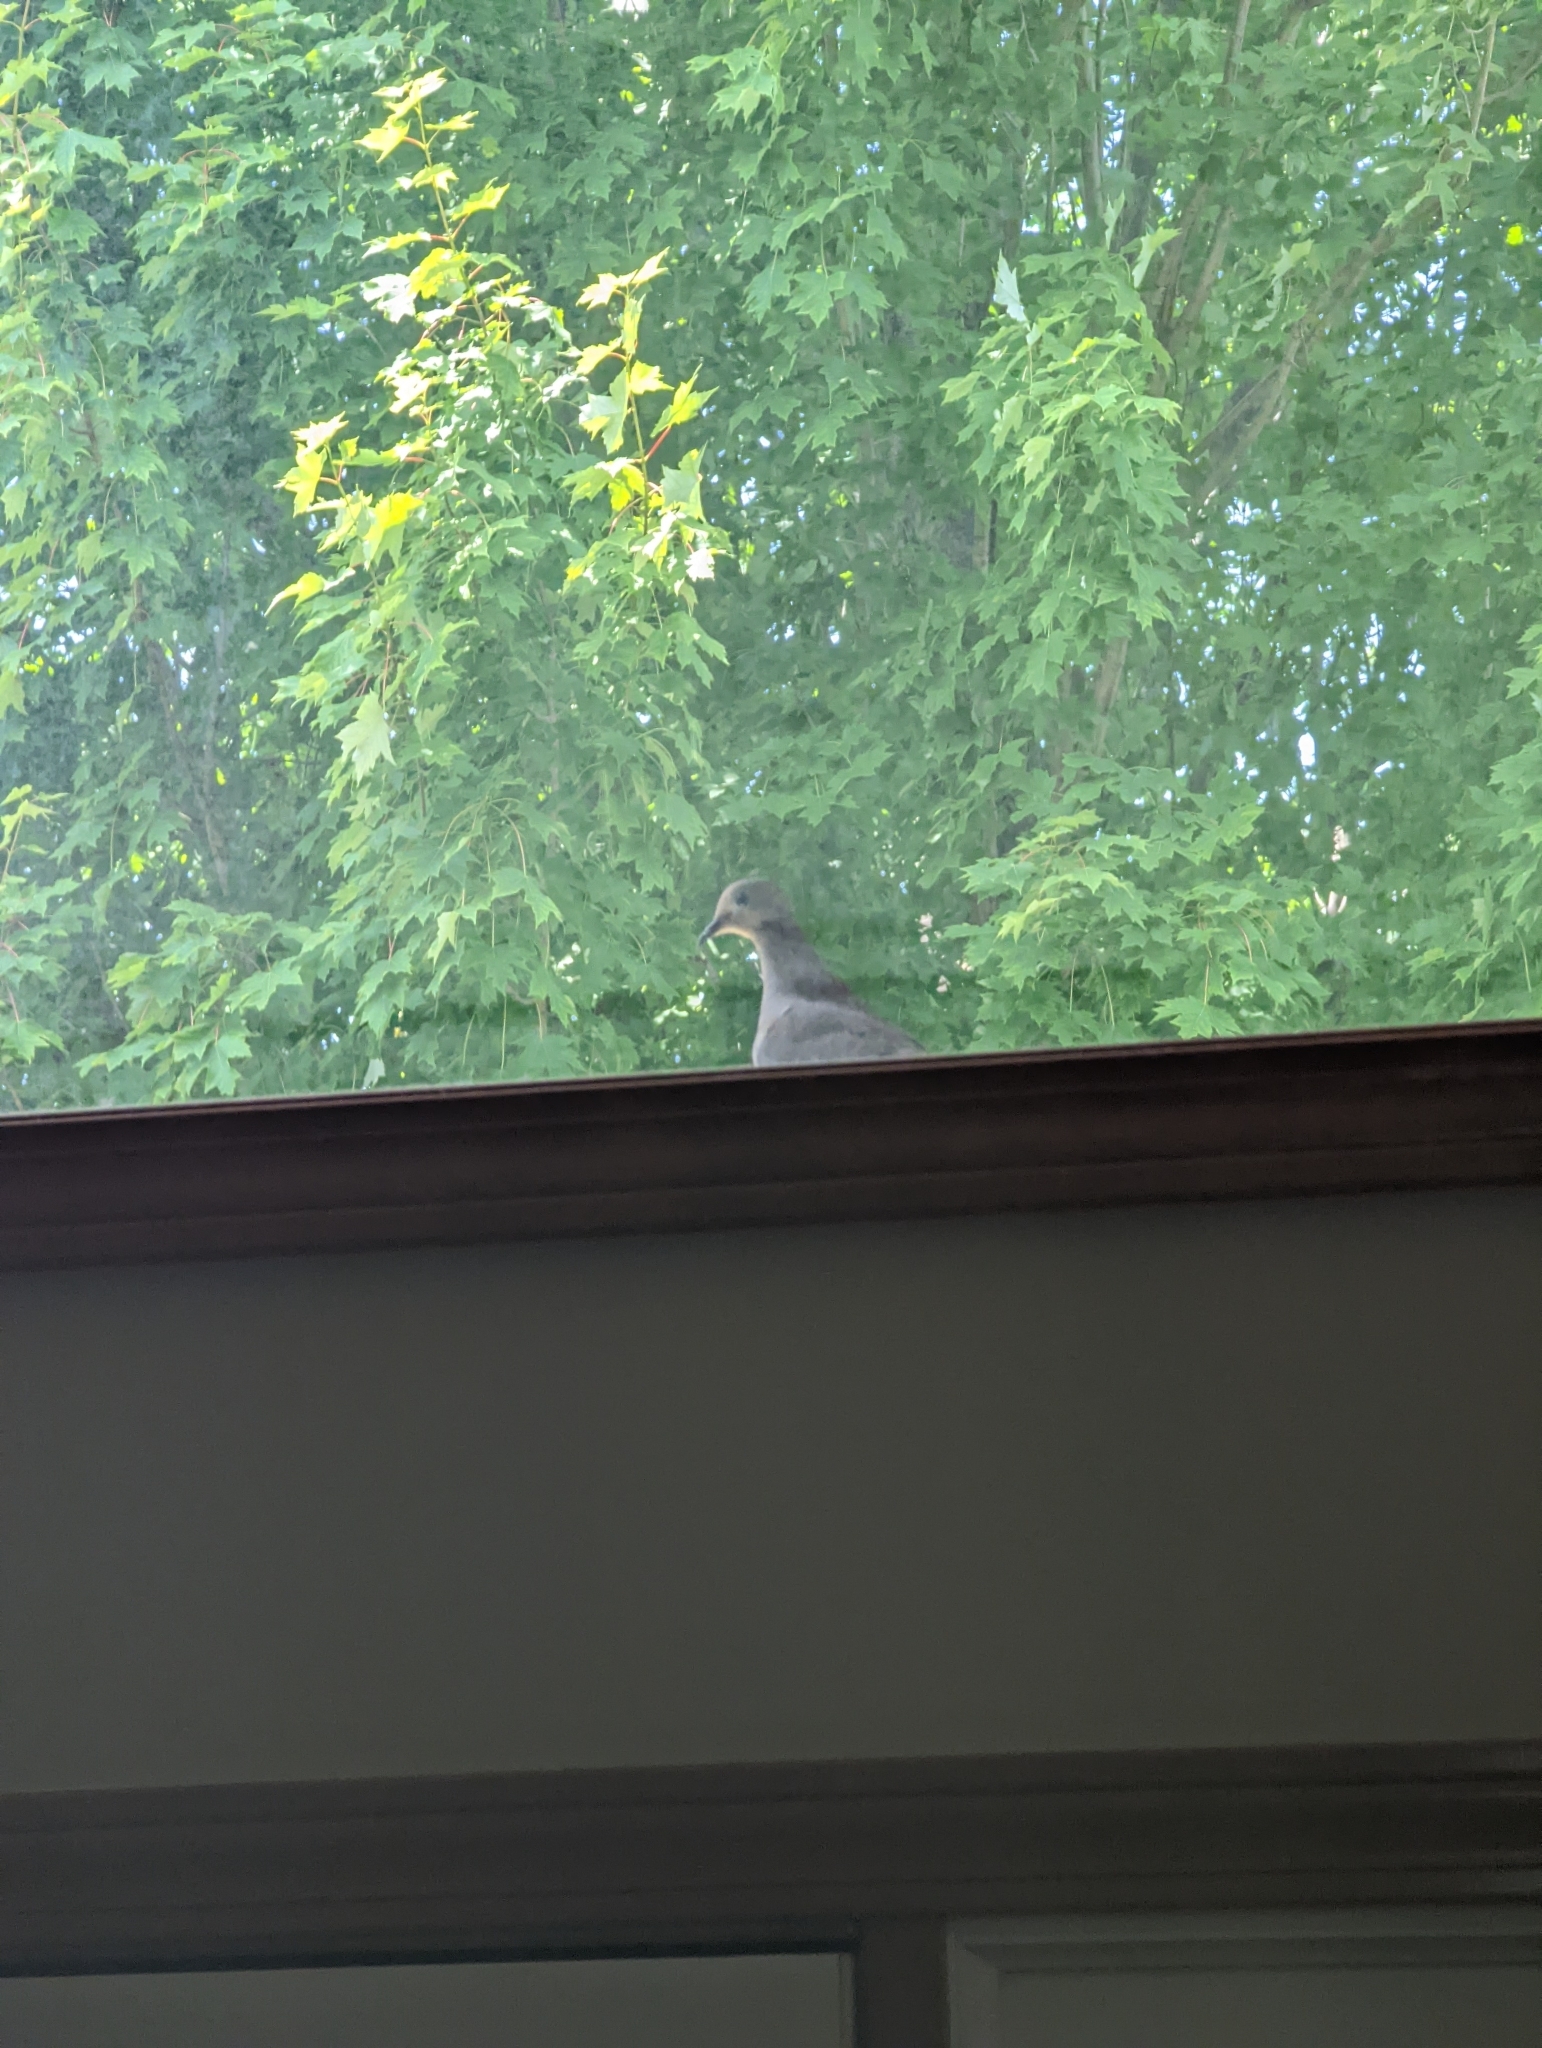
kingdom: Animalia
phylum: Chordata
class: Aves
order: Columbiformes
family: Columbidae
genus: Zenaida
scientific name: Zenaida macroura
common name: Mourning dove
